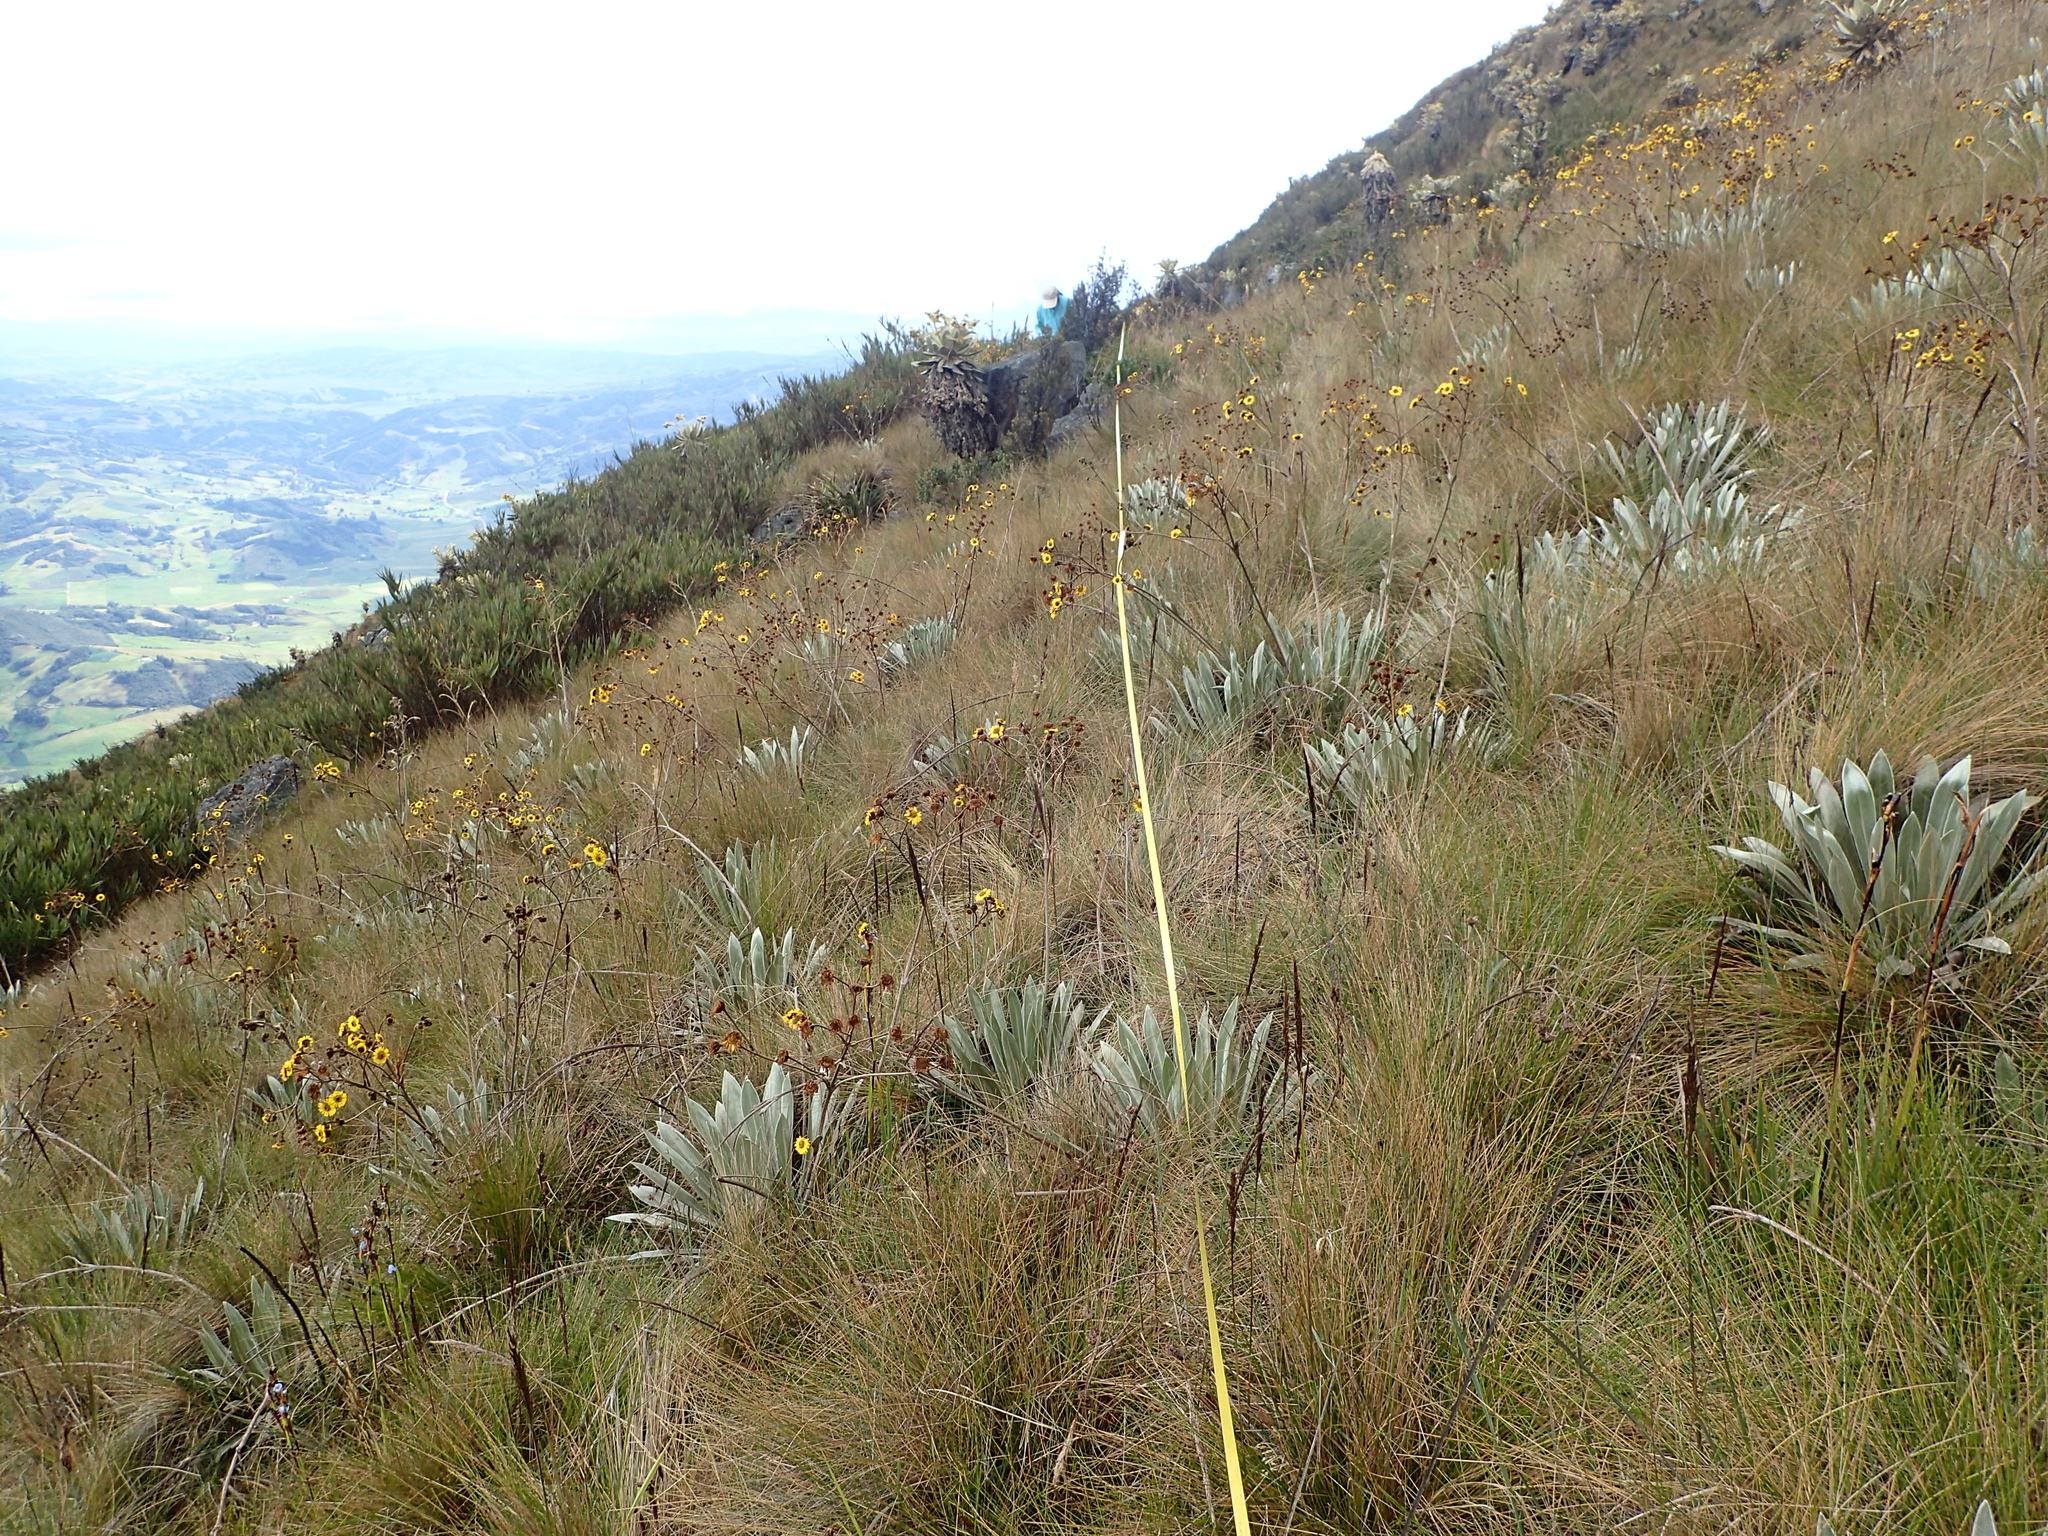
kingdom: Plantae
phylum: Tracheophyta
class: Magnoliopsida
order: Asterales
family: Asteraceae
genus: Espeletia
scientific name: Espeletia boyacensis
